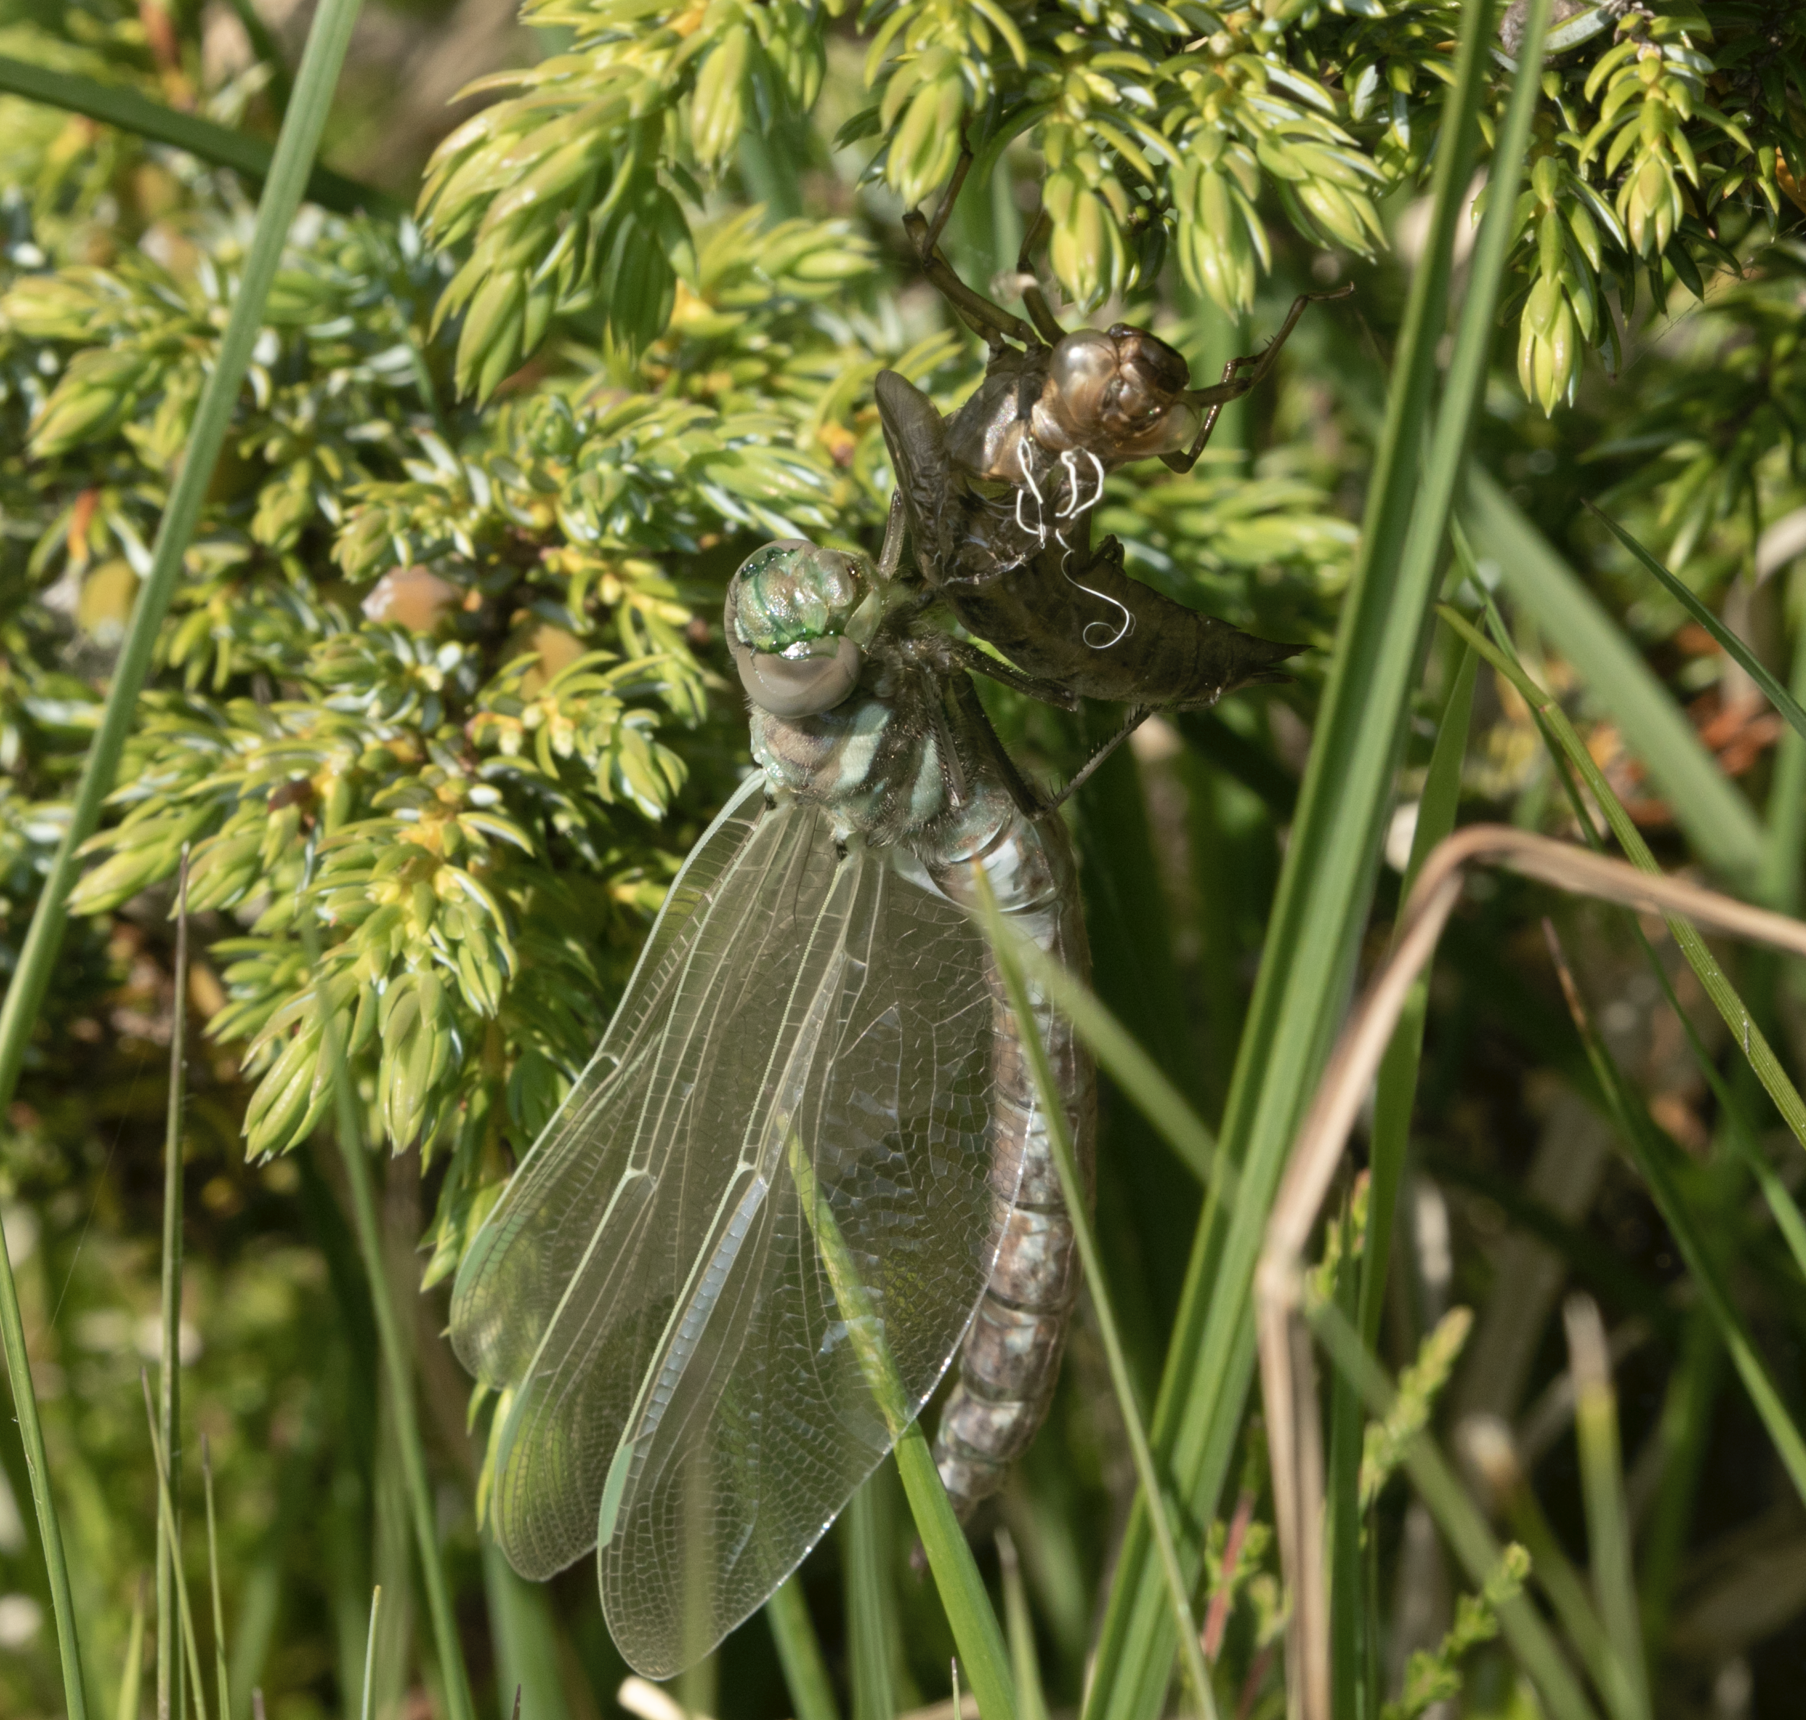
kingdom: Animalia
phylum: Arthropoda
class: Insecta
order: Odonata
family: Aeshnidae
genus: Aeshna
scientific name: Aeshna juncea
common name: Moorland hawker
